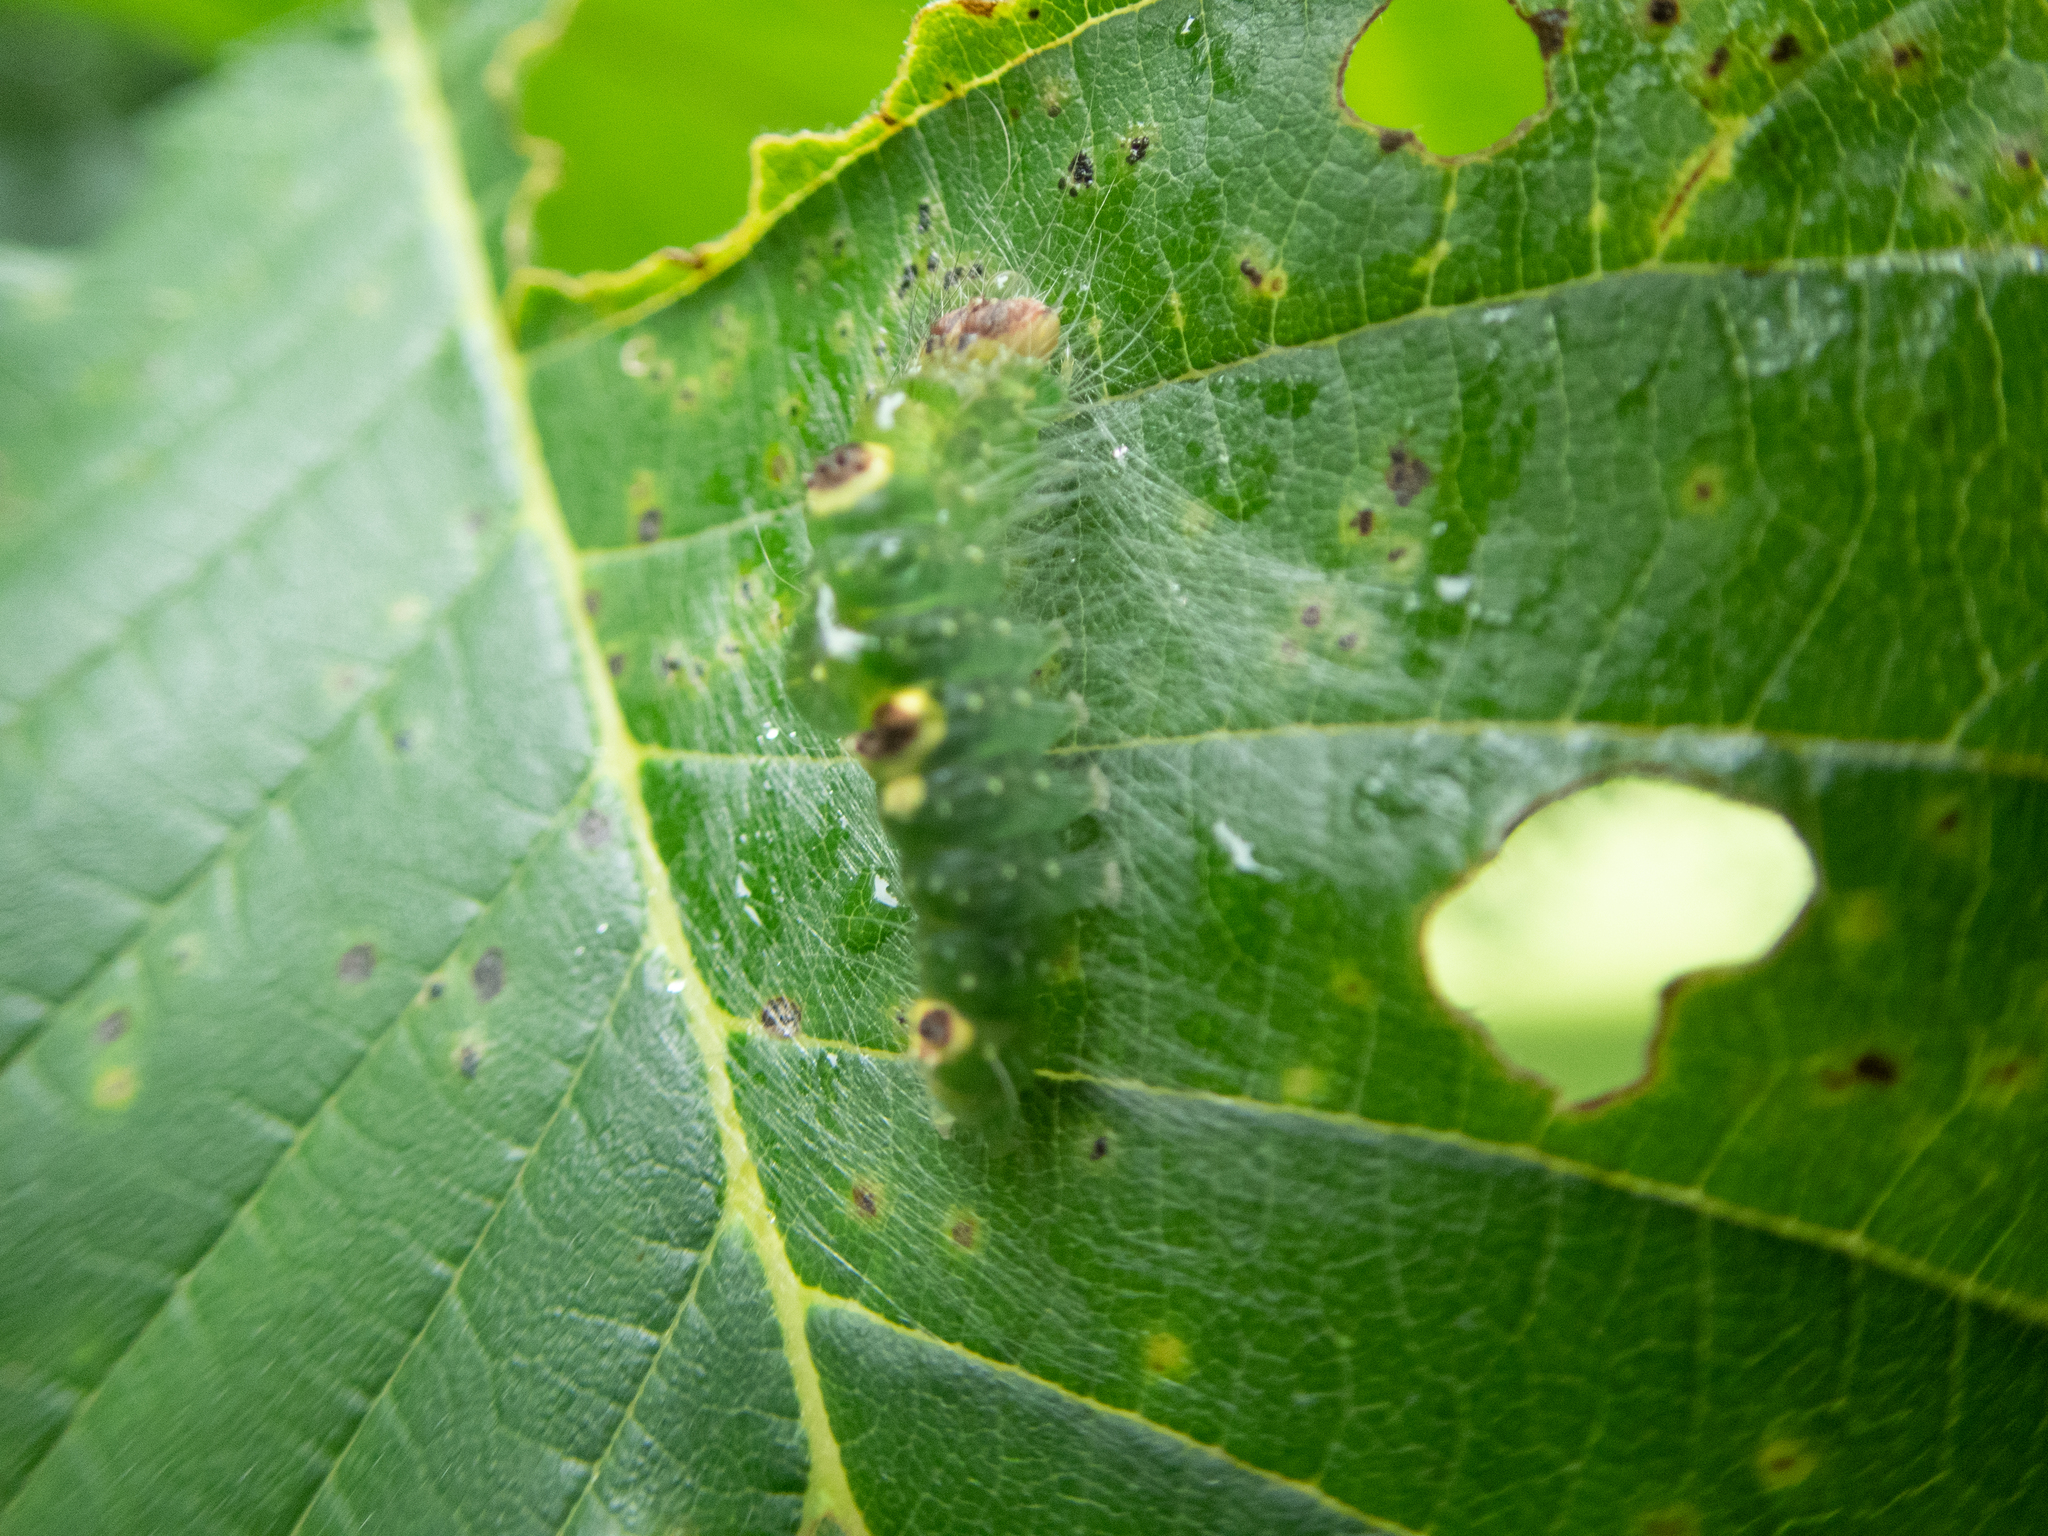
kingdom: Animalia
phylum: Arthropoda
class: Insecta
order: Lepidoptera
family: Noctuidae
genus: Acronicta
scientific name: Acronicta morula
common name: Ochre dagger
